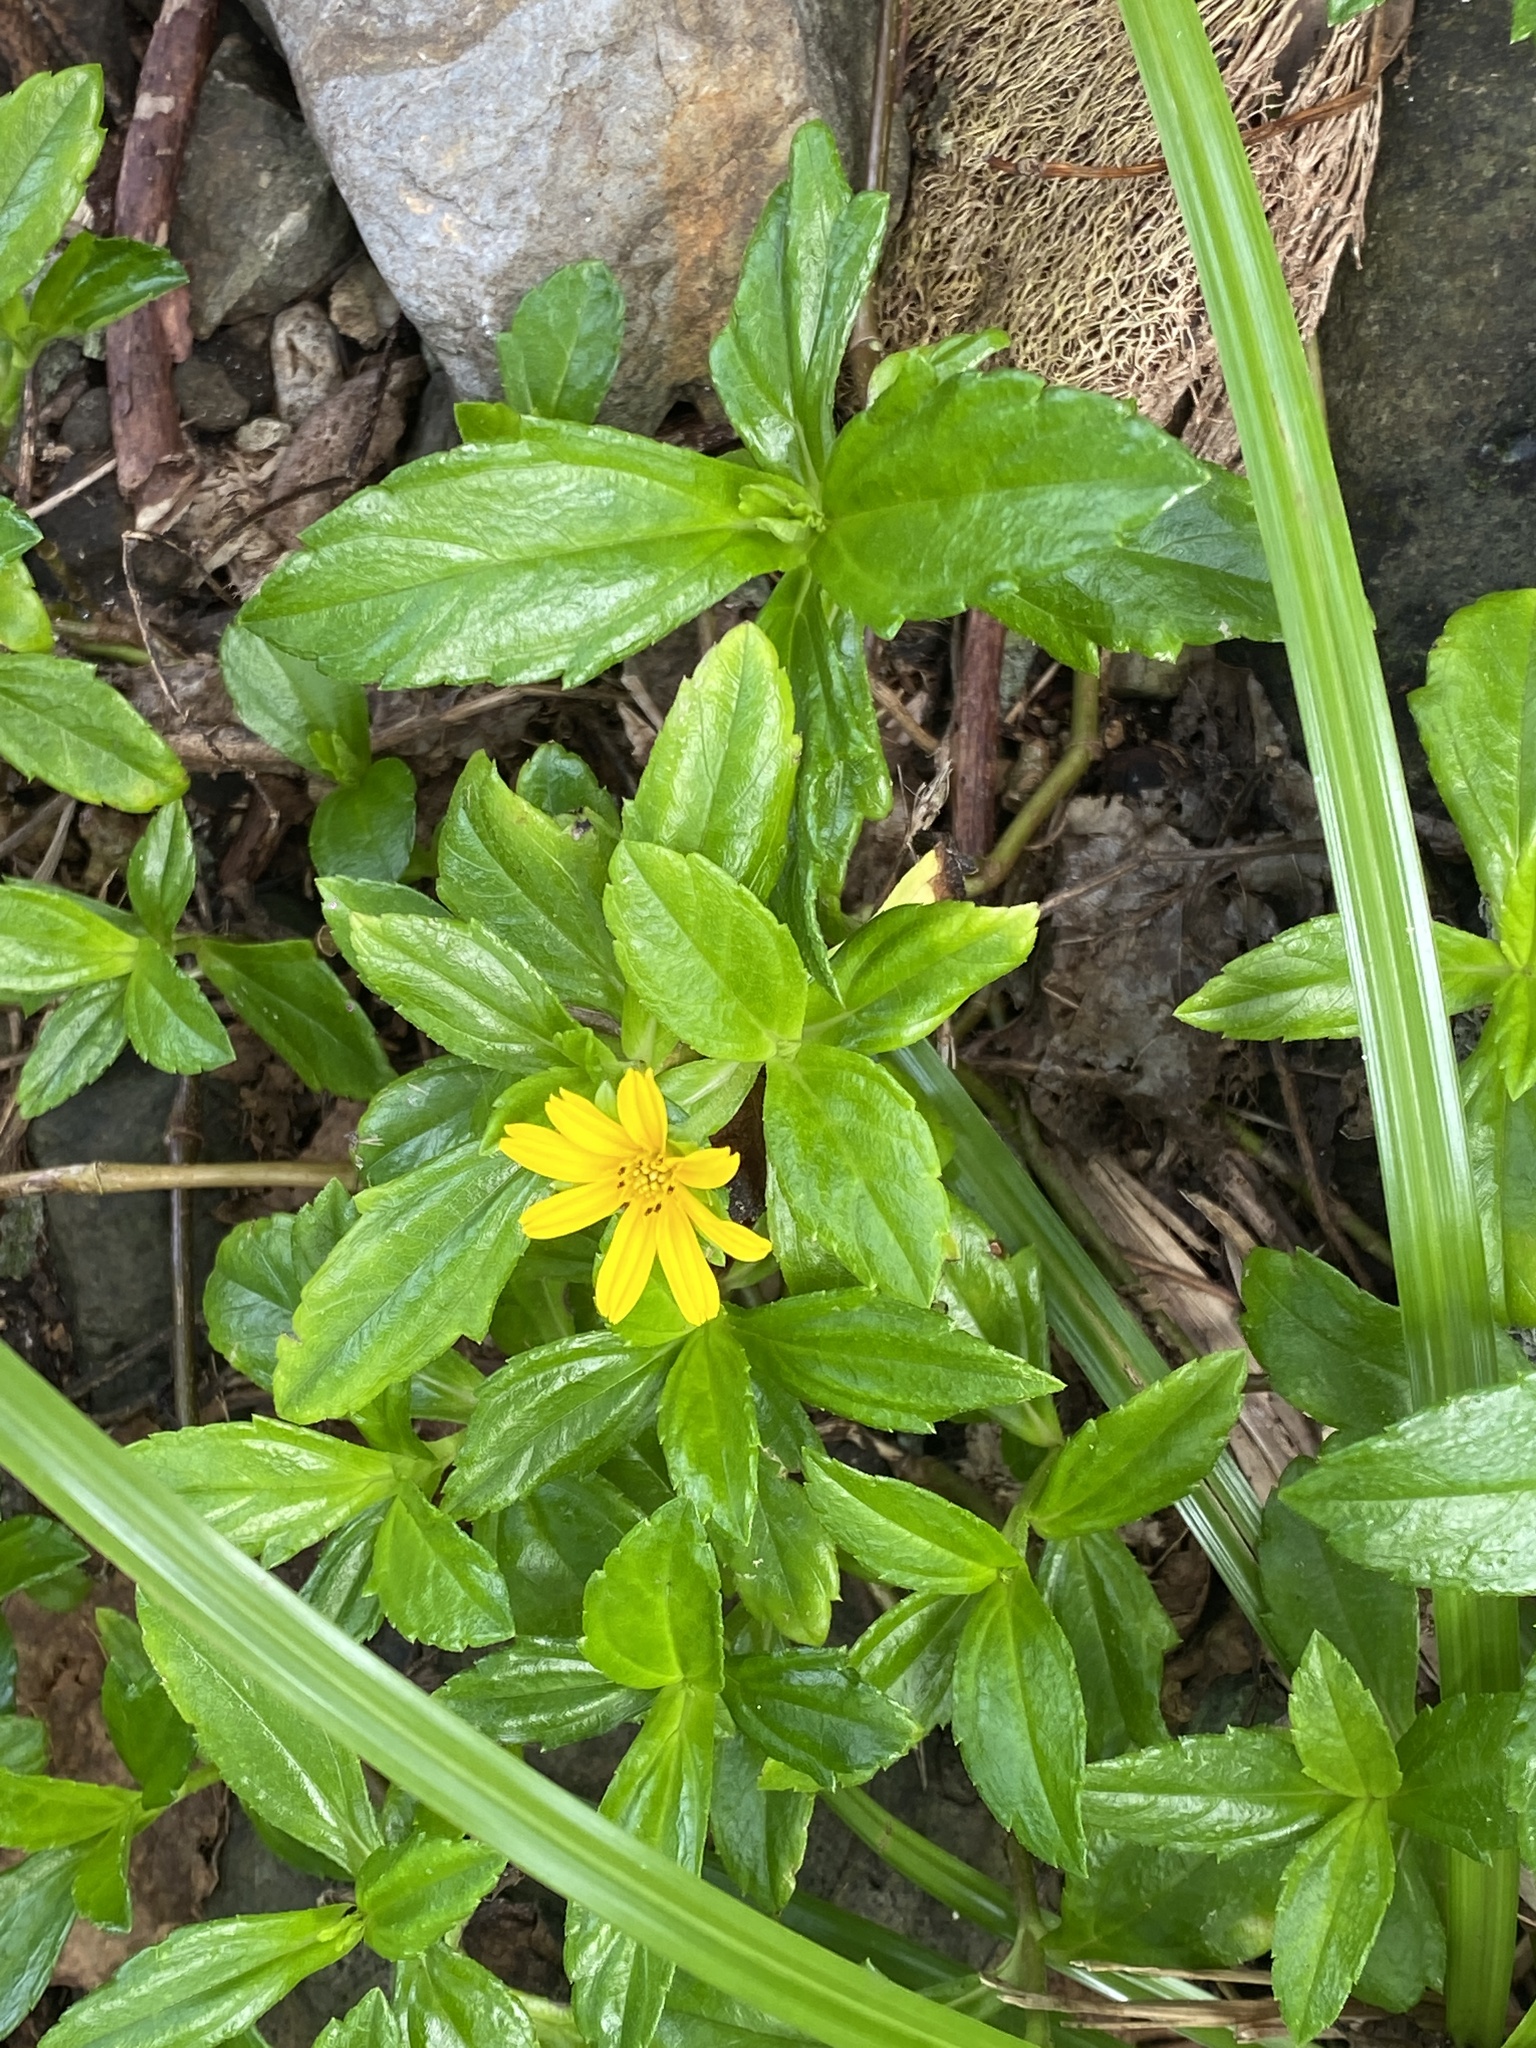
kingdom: Plantae
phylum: Tracheophyta
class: Magnoliopsida
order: Asterales
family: Asteraceae
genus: Sphagneticola
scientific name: Sphagneticola trilobata
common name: Bay biscayne creeping-oxeye
